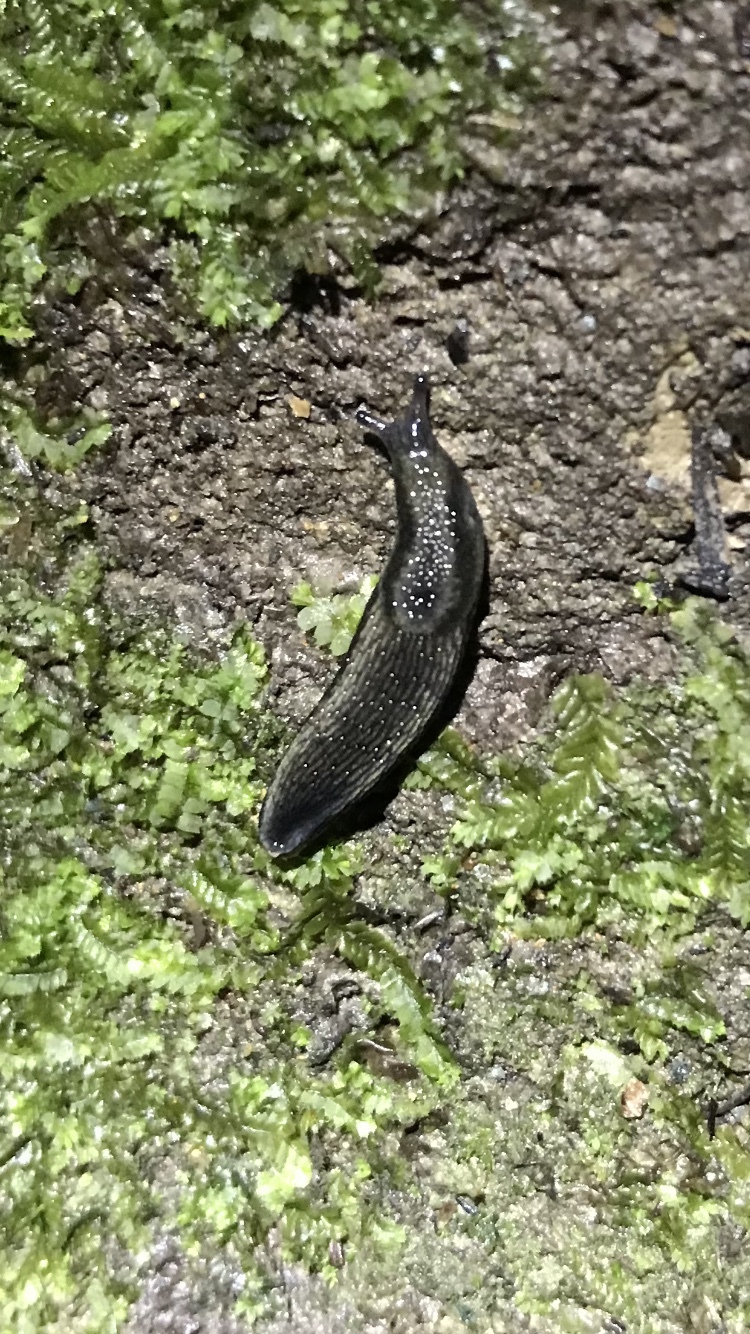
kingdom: Animalia
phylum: Mollusca
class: Gastropoda
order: Stylommatophora
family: Arionidae
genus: Kobeltia
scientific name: Kobeltia
